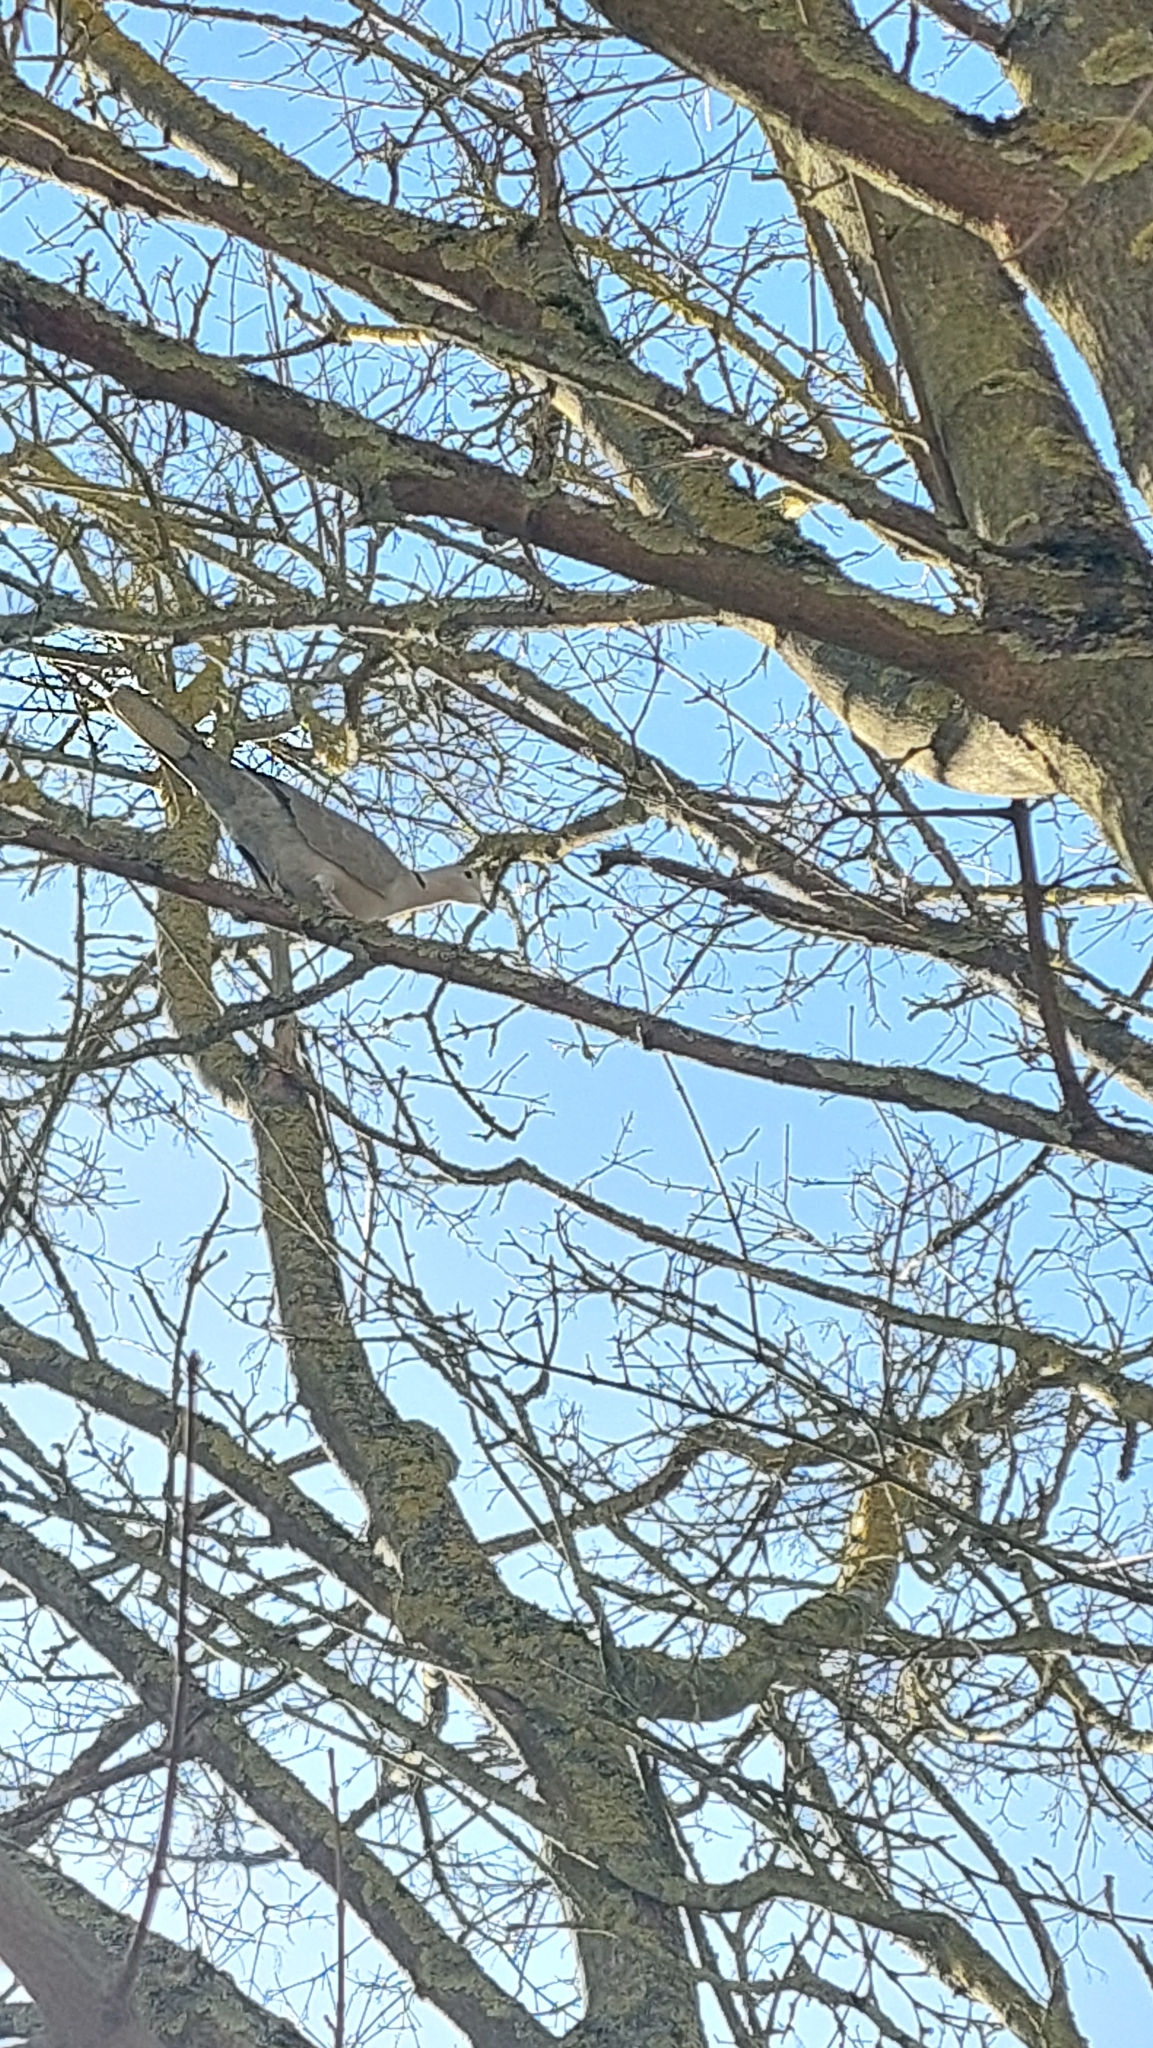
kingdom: Animalia
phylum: Chordata
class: Aves
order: Columbiformes
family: Columbidae
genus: Streptopelia
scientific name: Streptopelia decaocto
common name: Eurasian collared dove
